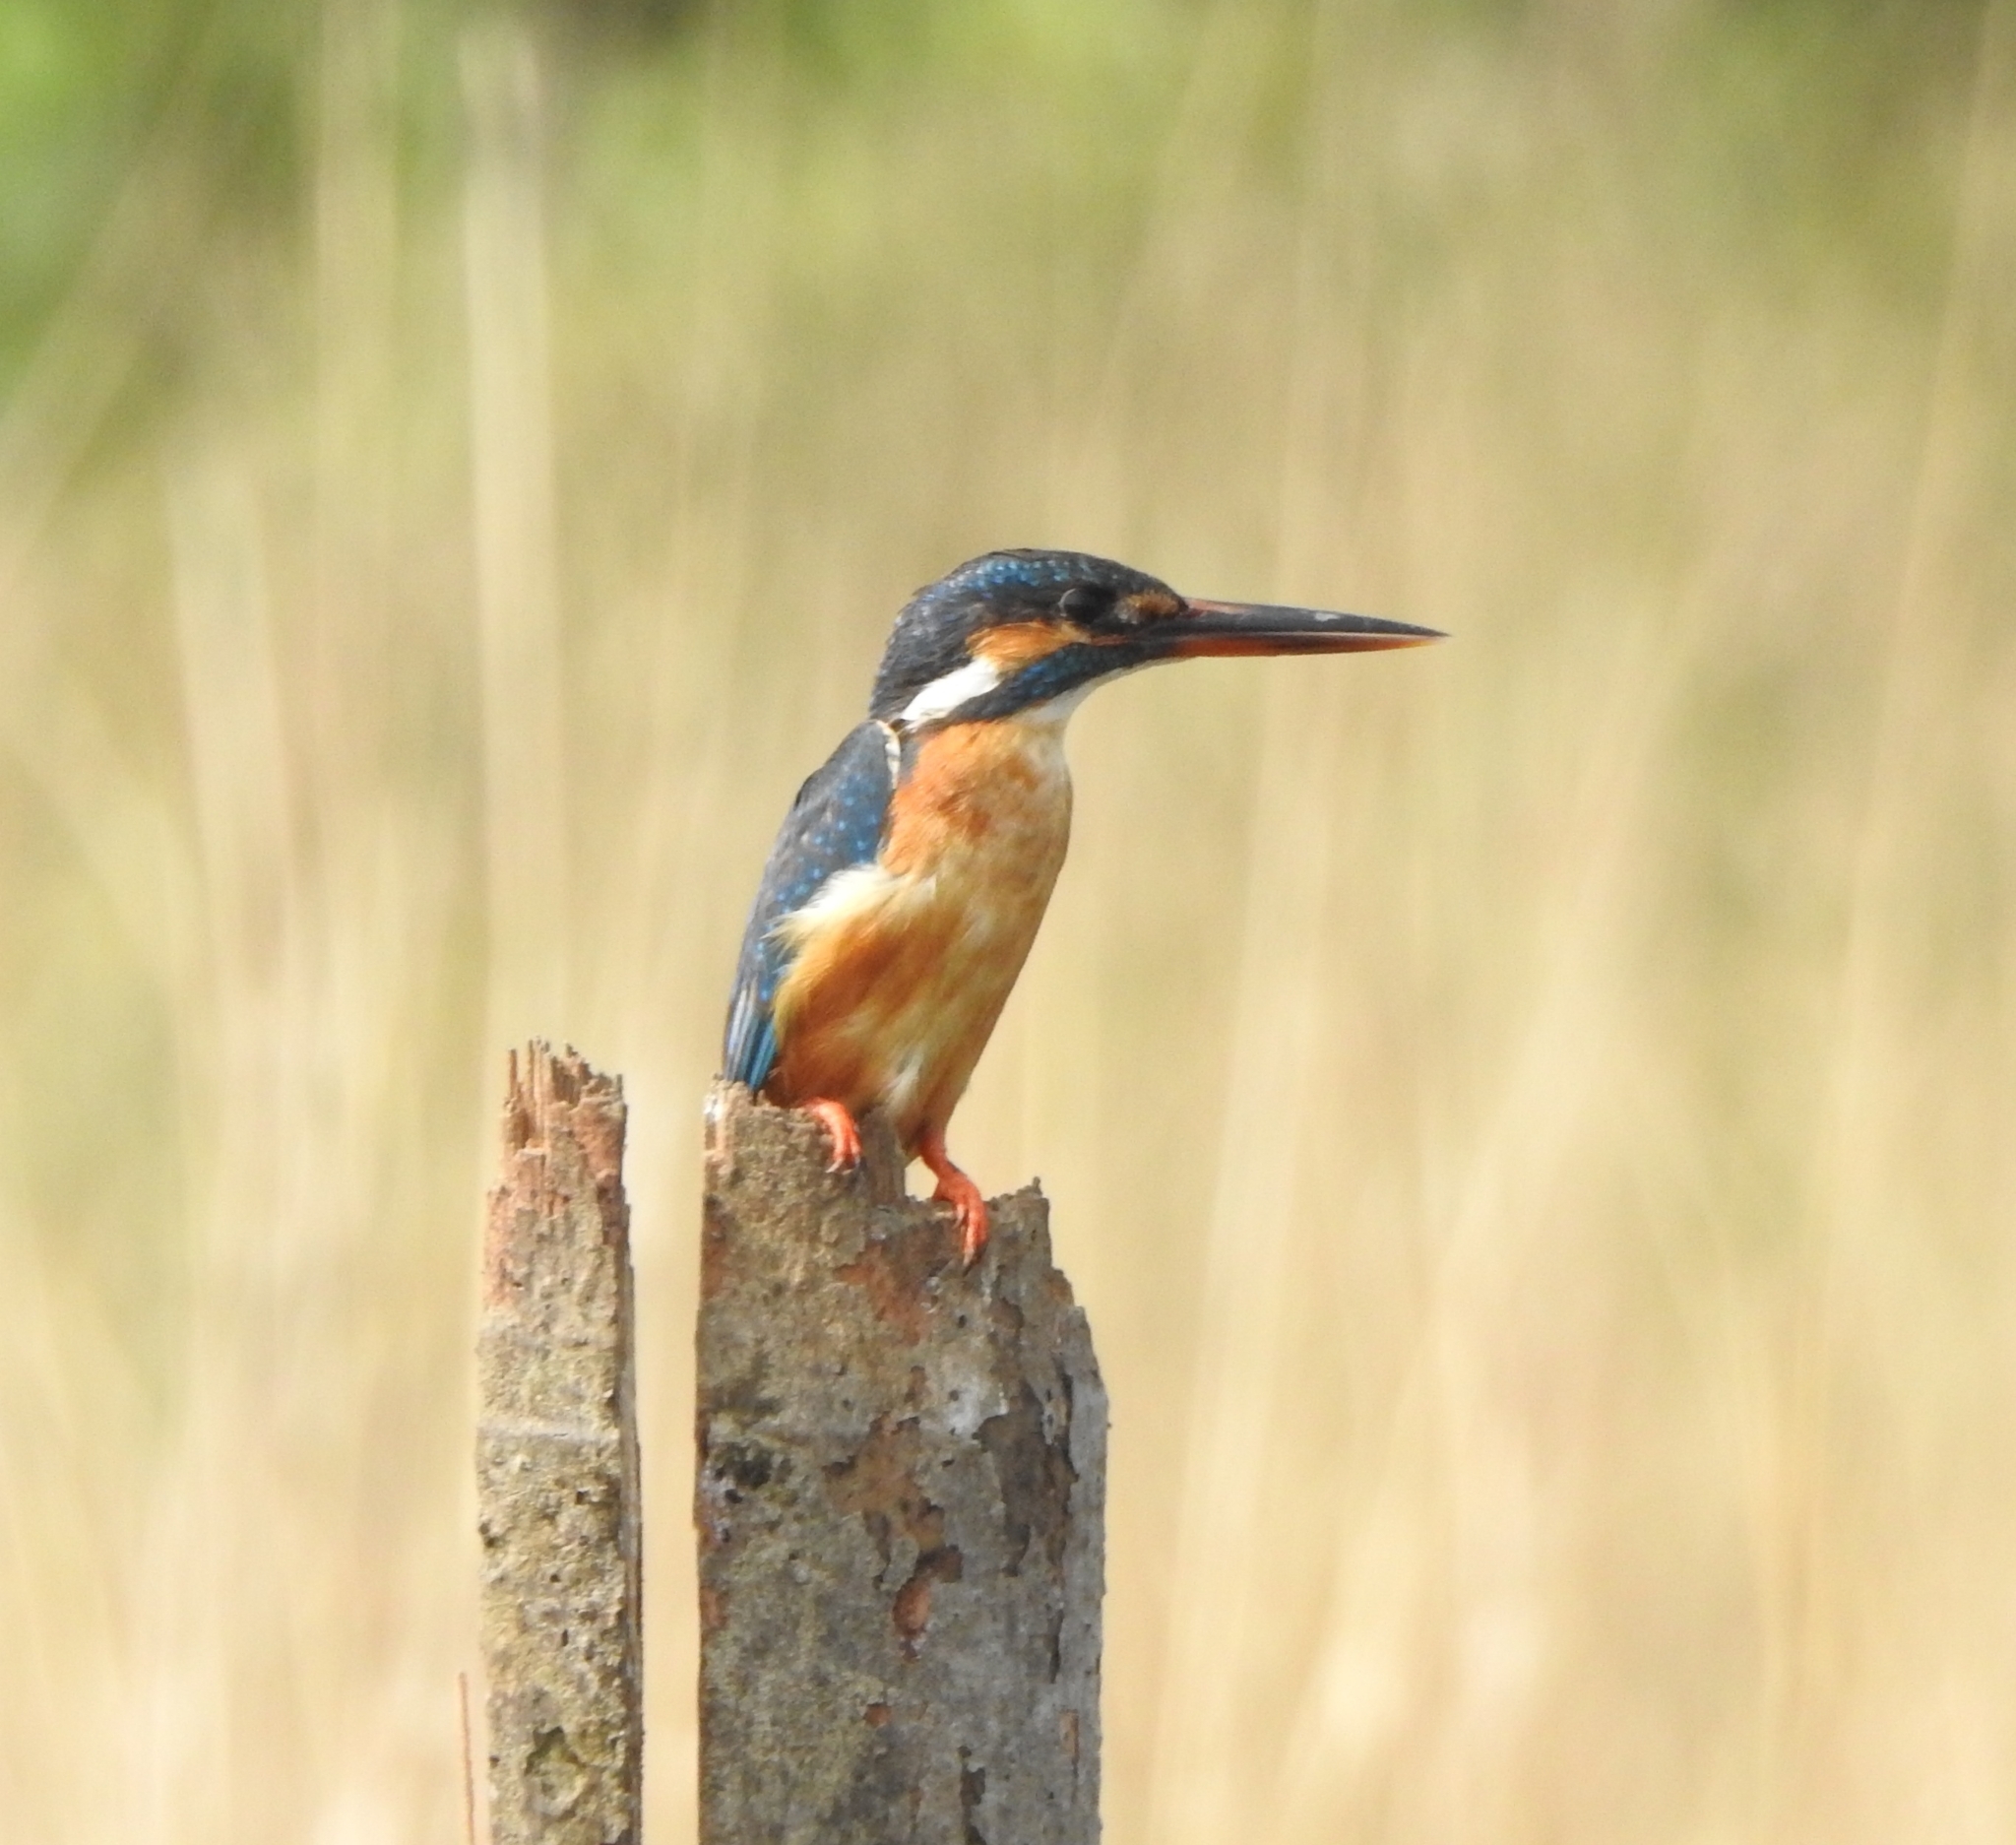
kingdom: Animalia
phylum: Chordata
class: Aves
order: Coraciiformes
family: Alcedinidae
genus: Alcedo
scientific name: Alcedo atthis
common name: Common kingfisher
